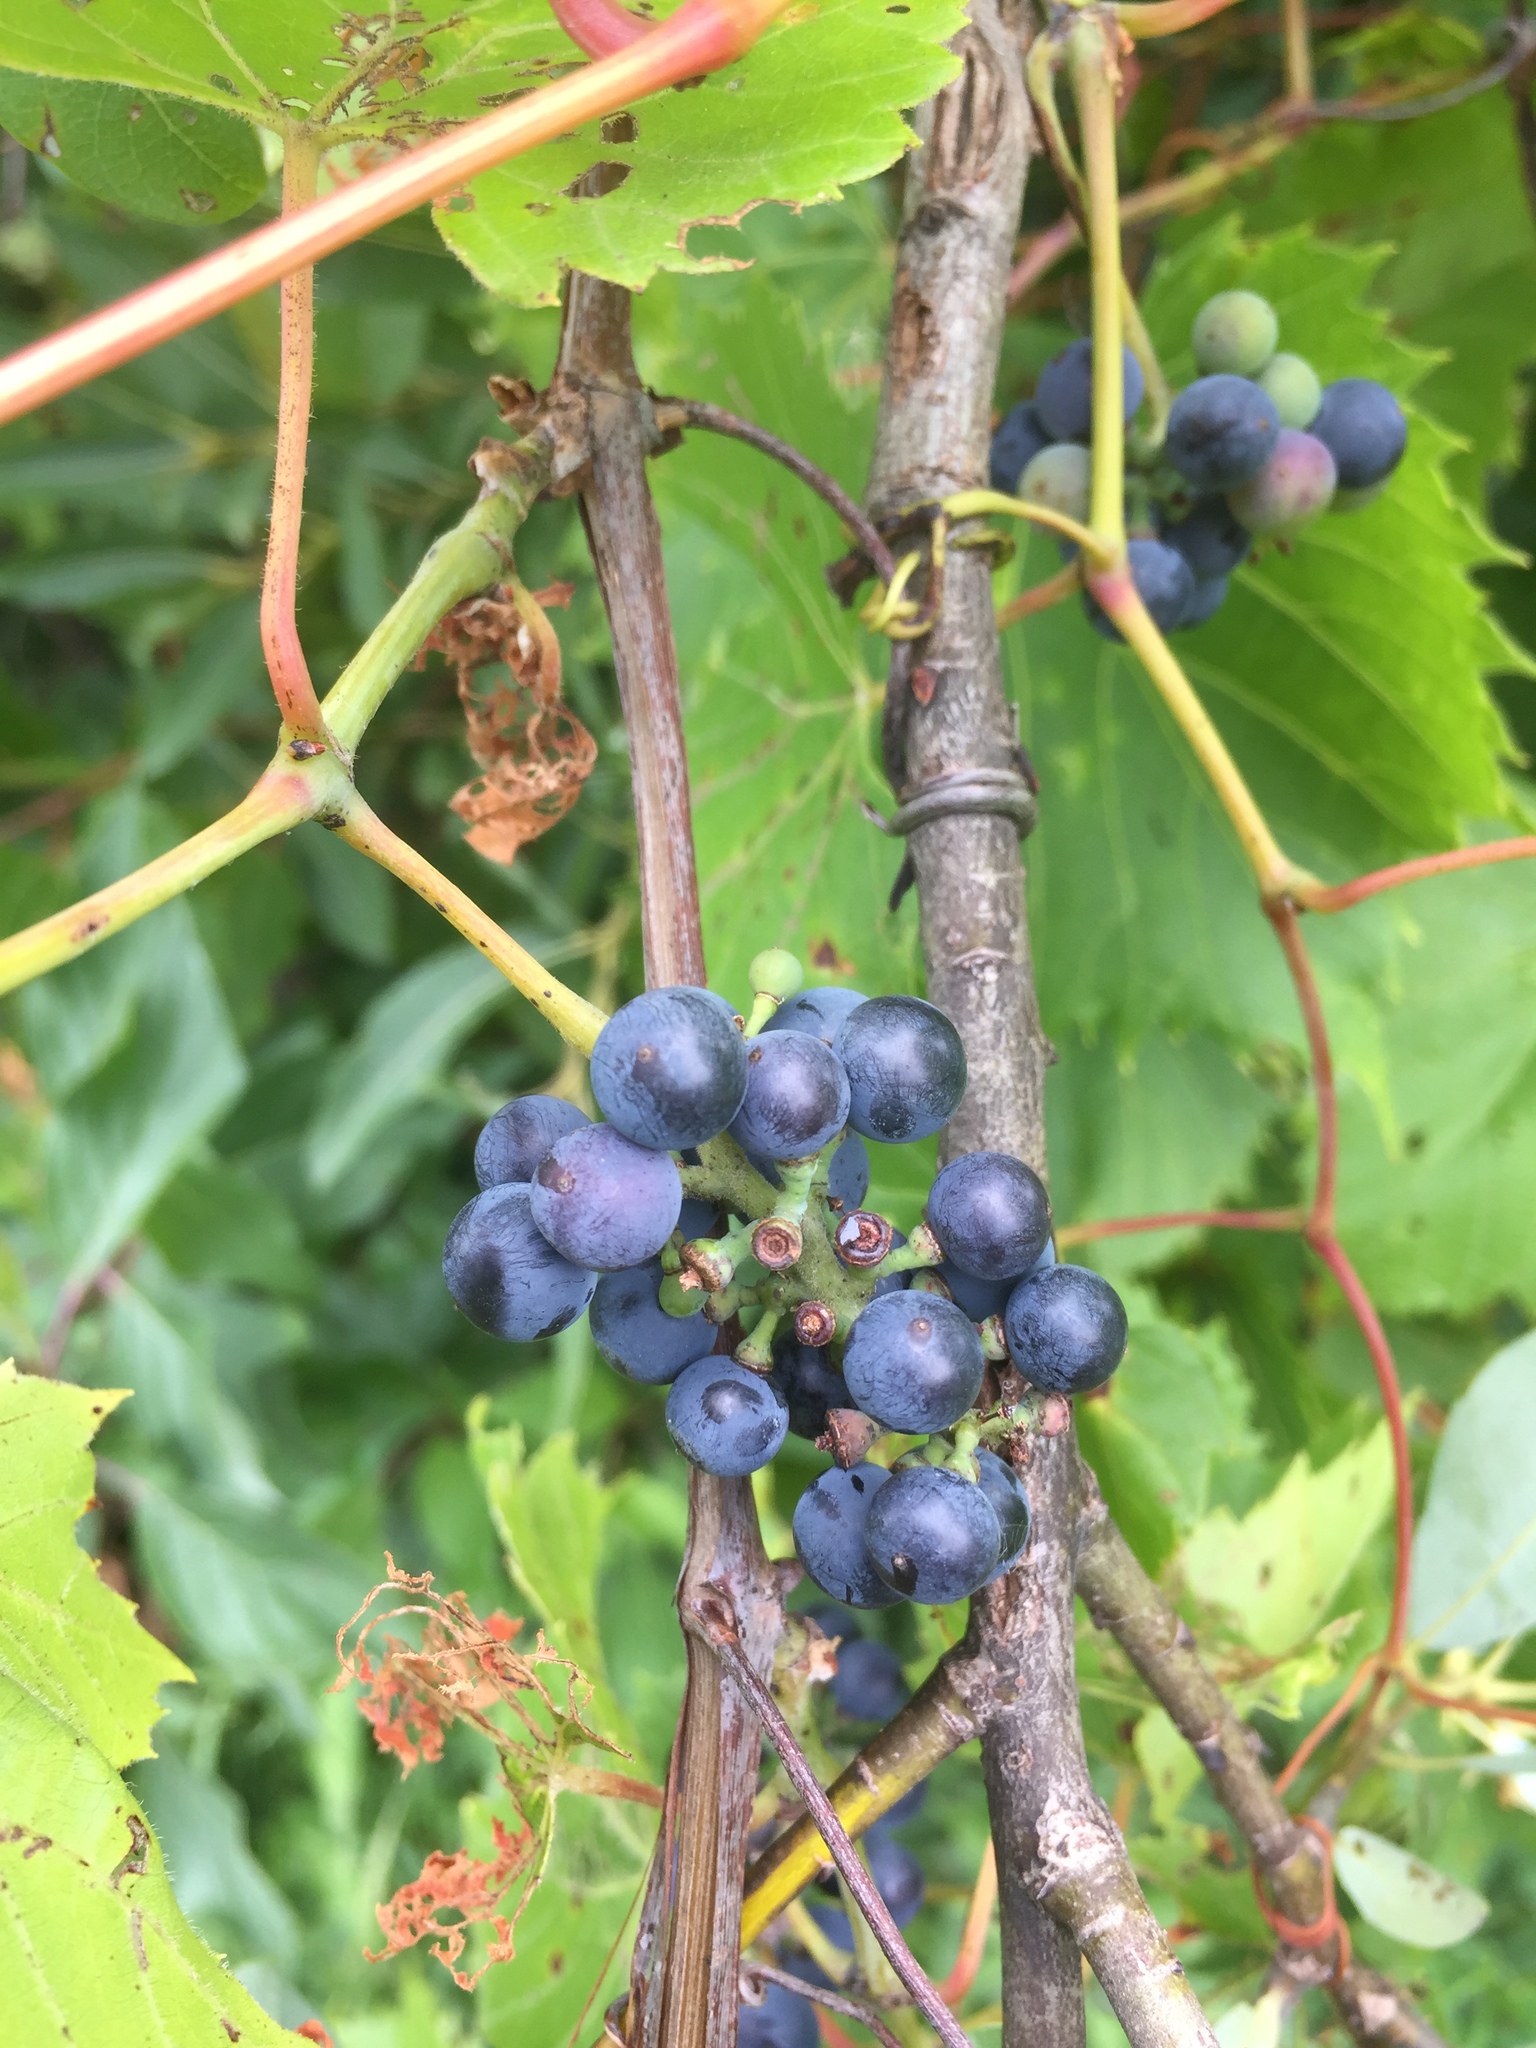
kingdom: Plantae
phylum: Tracheophyta
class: Magnoliopsida
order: Vitales
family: Vitaceae
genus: Vitis
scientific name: Vitis riparia
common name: Frost grape
